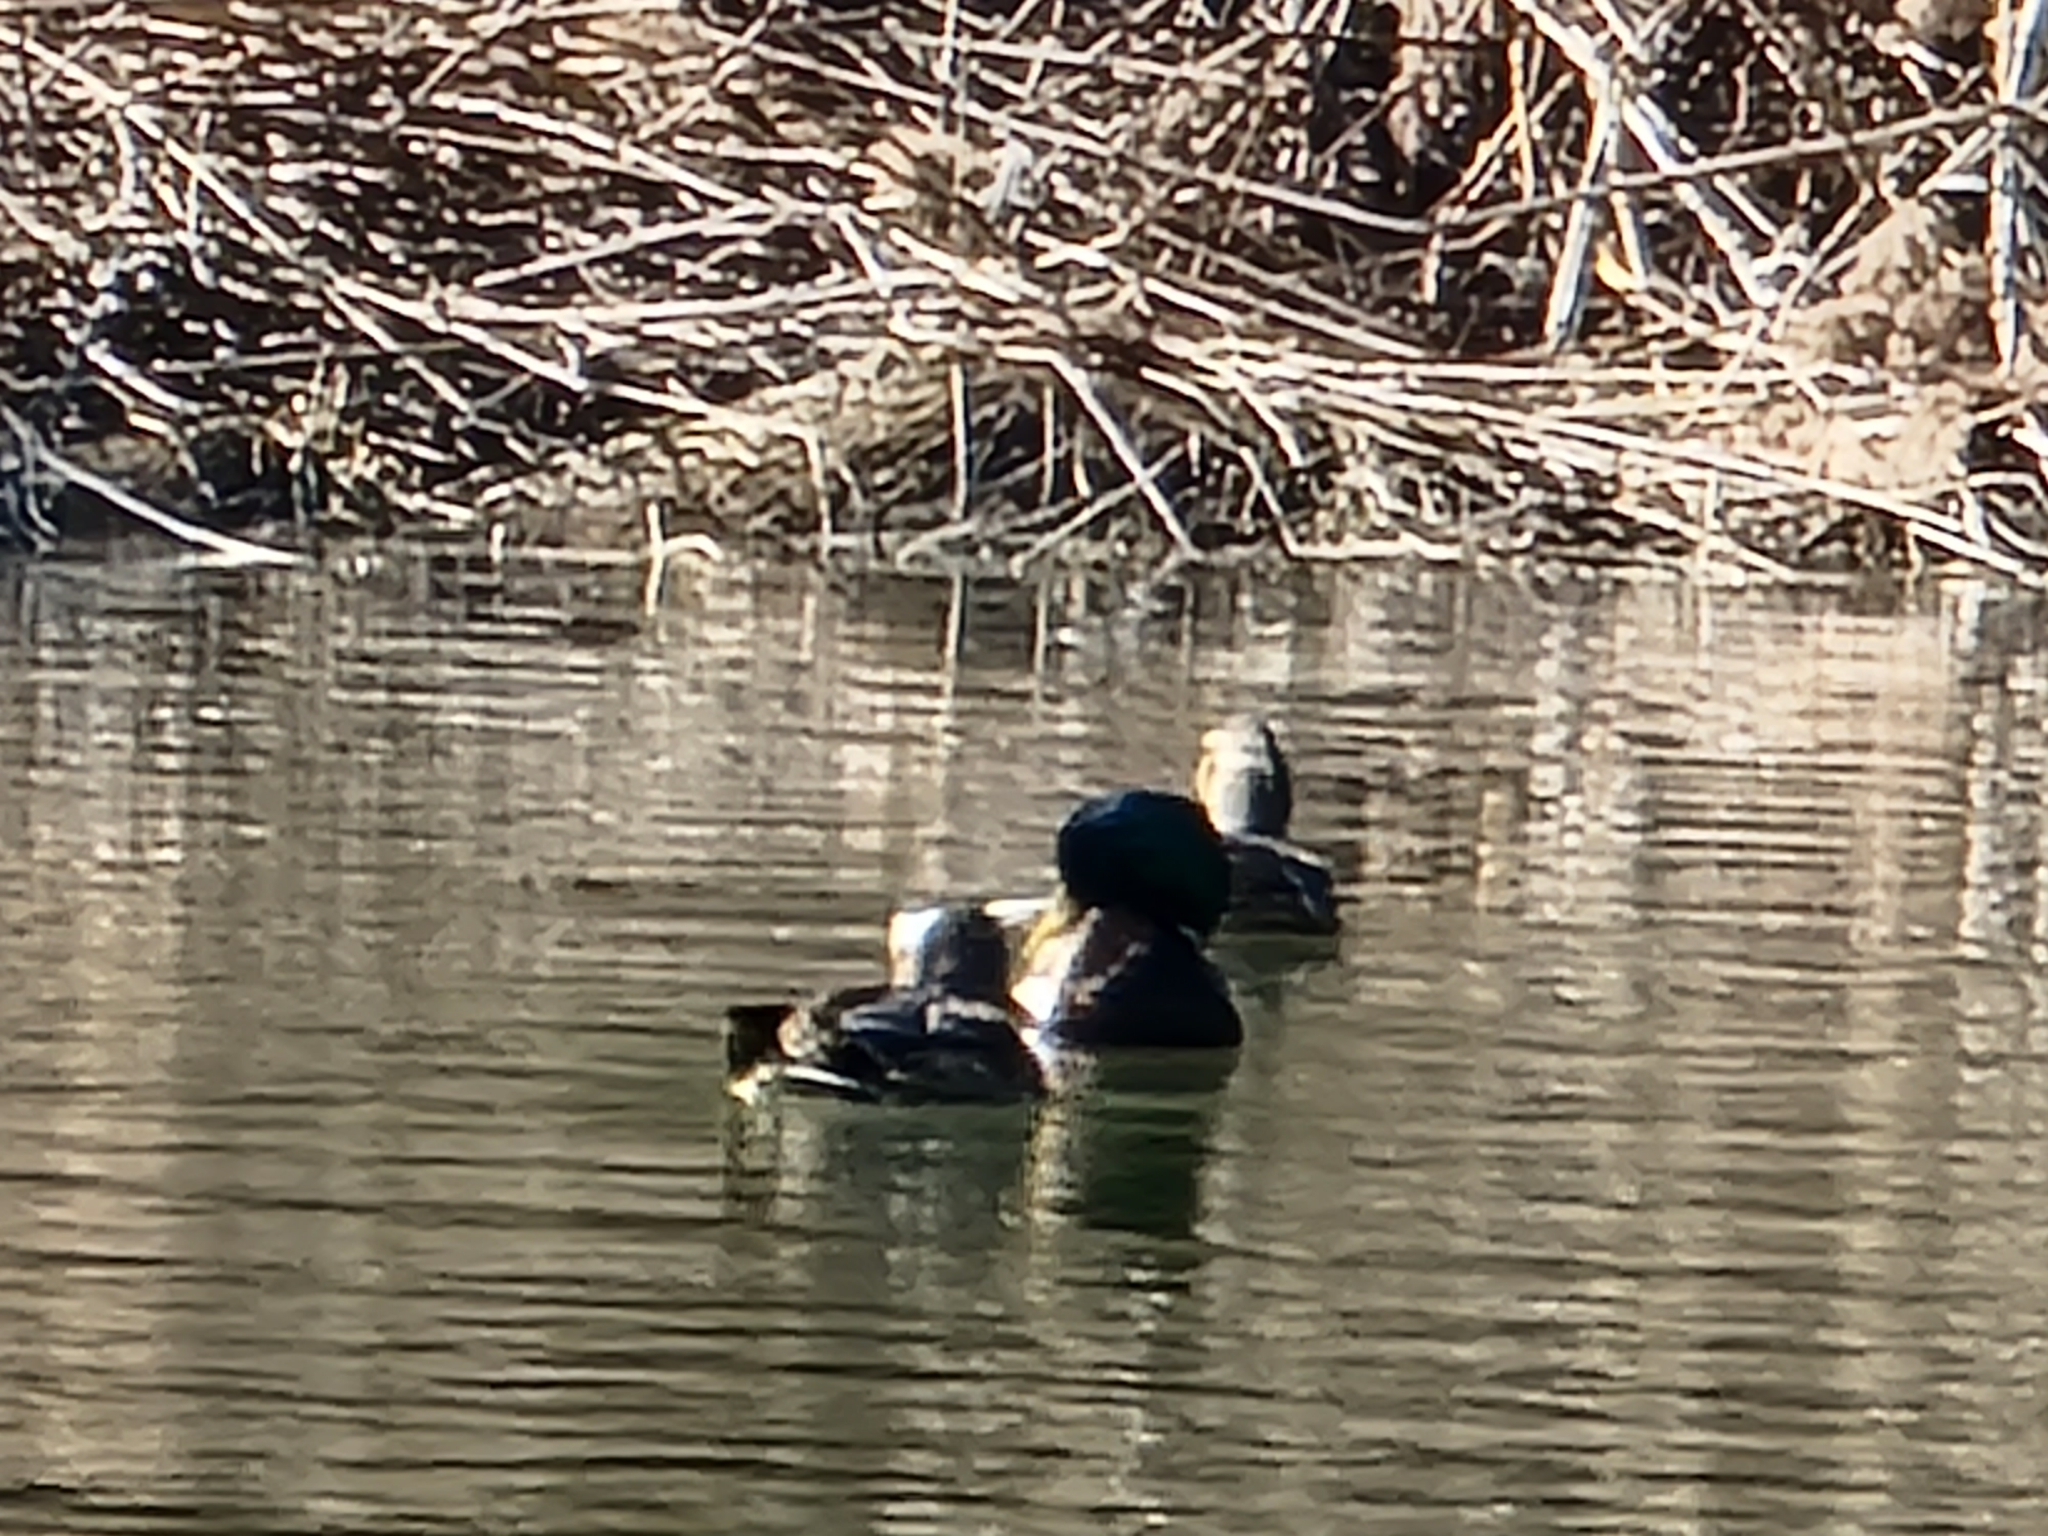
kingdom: Animalia
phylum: Chordata
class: Aves
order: Anseriformes
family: Anatidae
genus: Anas
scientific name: Anas platyrhynchos
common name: Mallard
